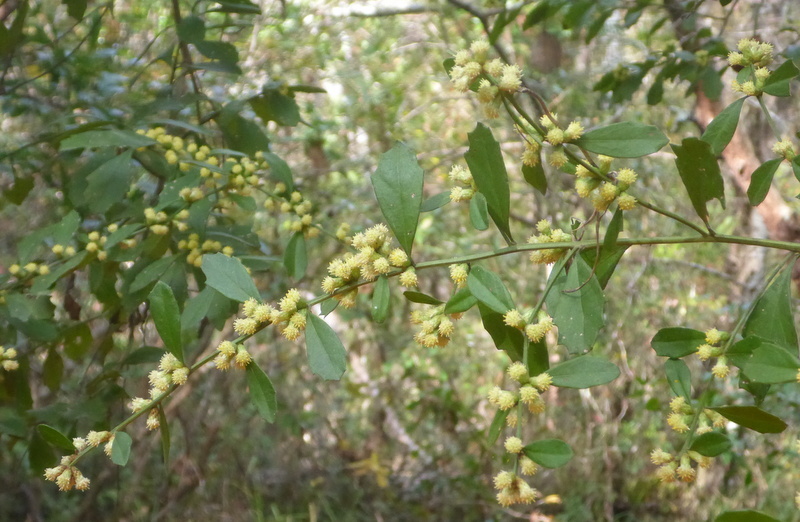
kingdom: Plantae
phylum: Tracheophyta
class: Magnoliopsida
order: Asterales
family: Asteraceae
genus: Baccharis
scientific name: Baccharis glomeruliflora
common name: Silverling groundsel bush
